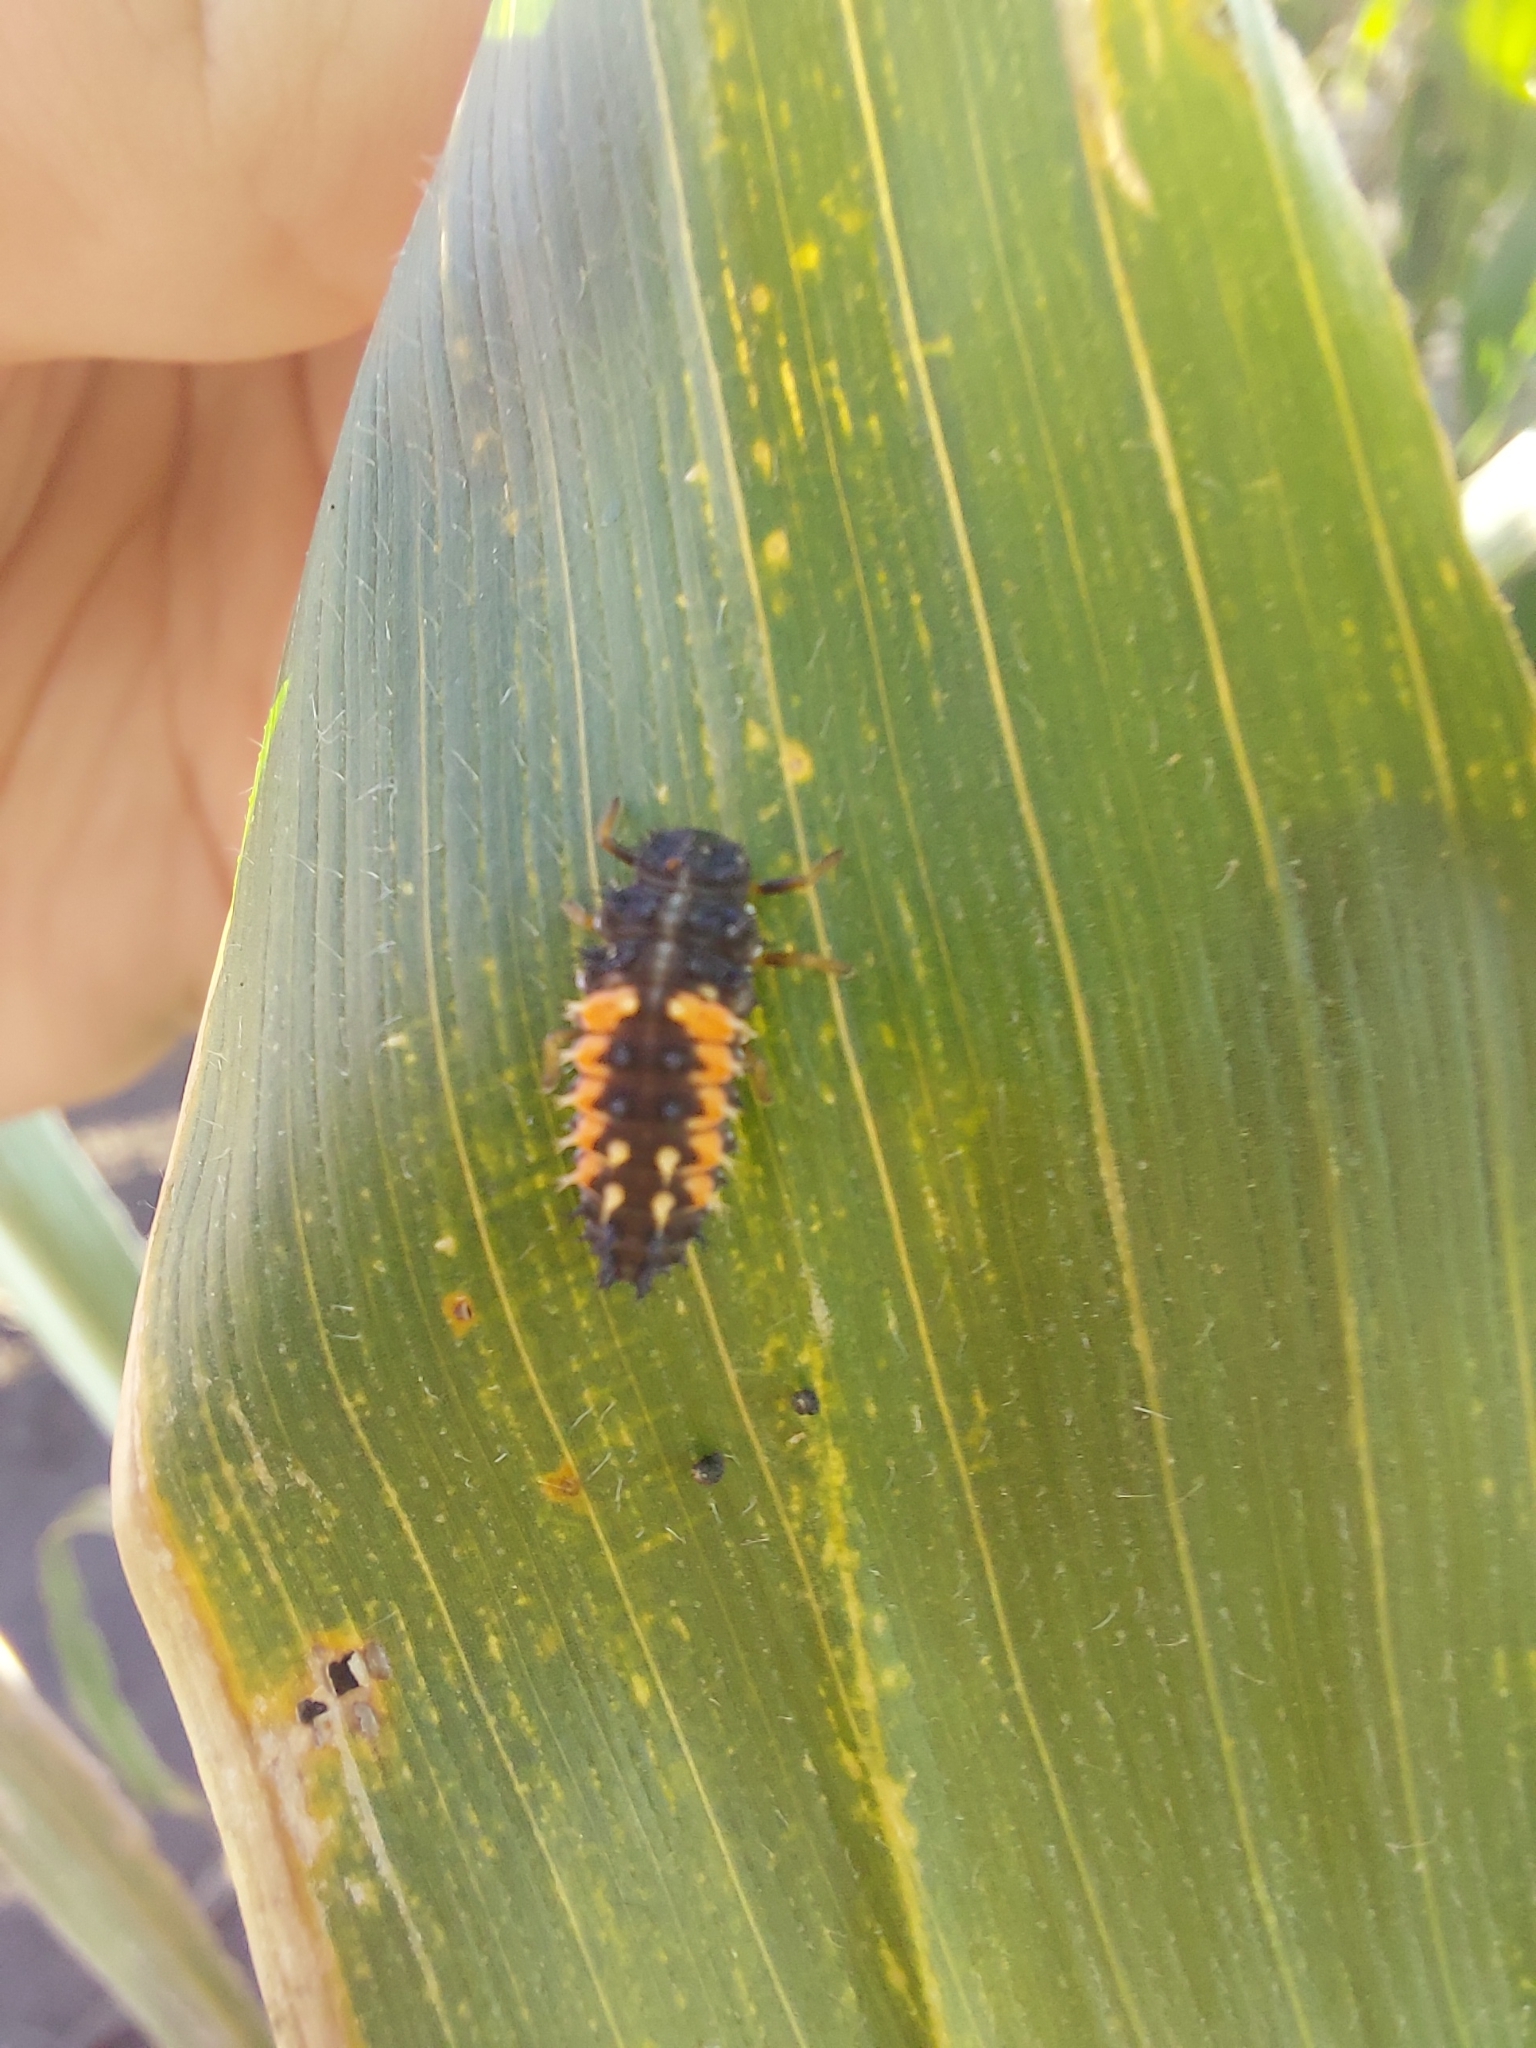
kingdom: Animalia
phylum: Arthropoda
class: Insecta
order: Coleoptera
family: Coccinellidae
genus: Harmonia
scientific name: Harmonia axyridis
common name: Harlequin ladybird
